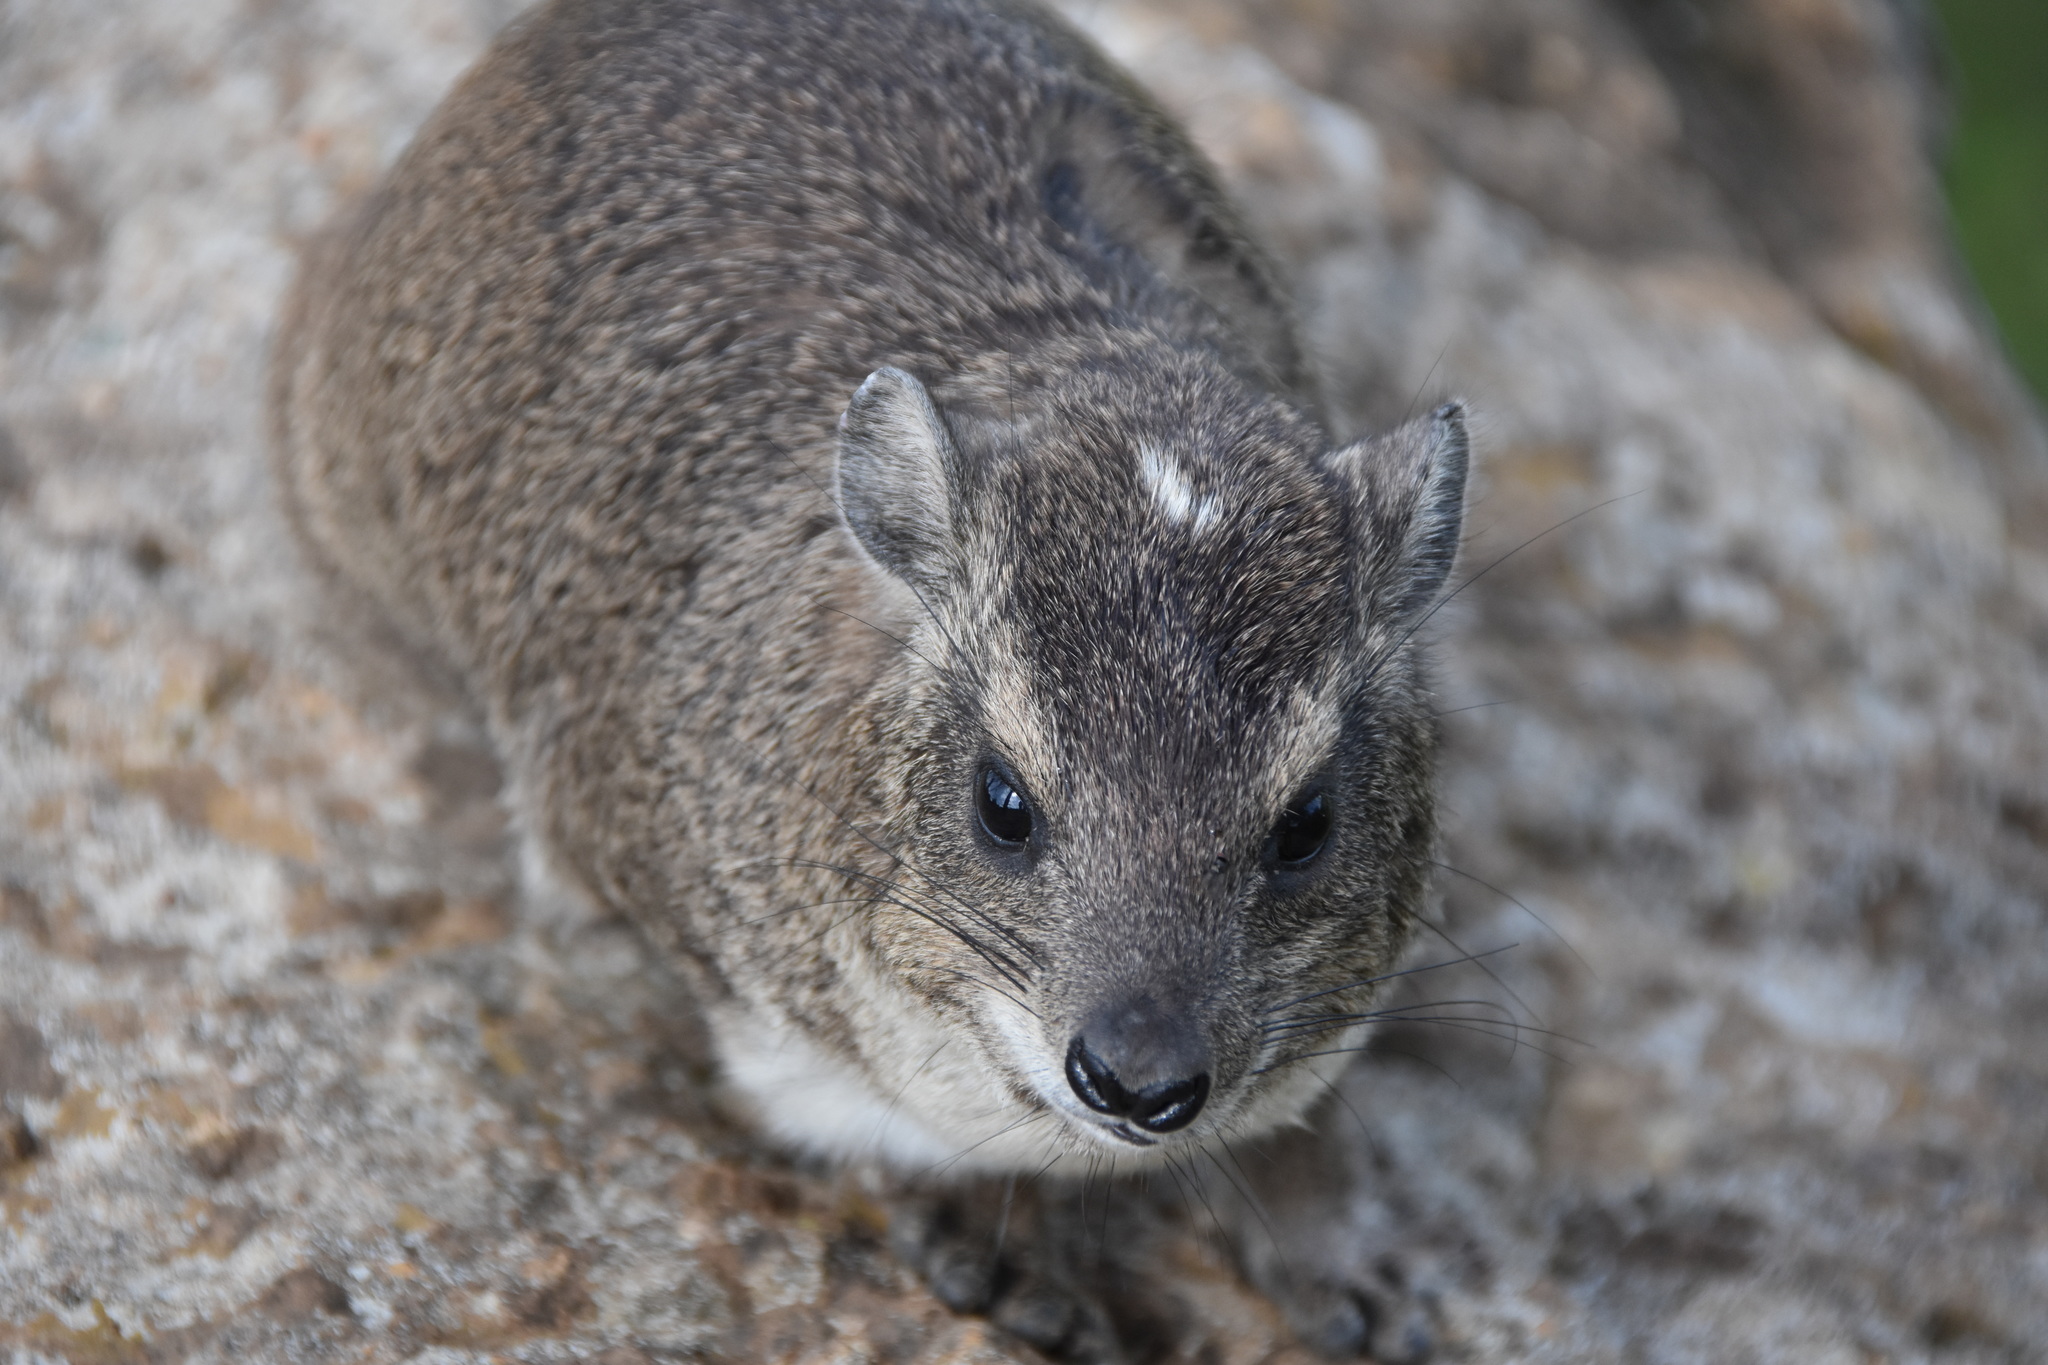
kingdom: Animalia
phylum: Chordata
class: Mammalia
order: Hyracoidea
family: Procaviidae
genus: Heterohyrax
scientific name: Heterohyrax brucei
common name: Bush hyrax
